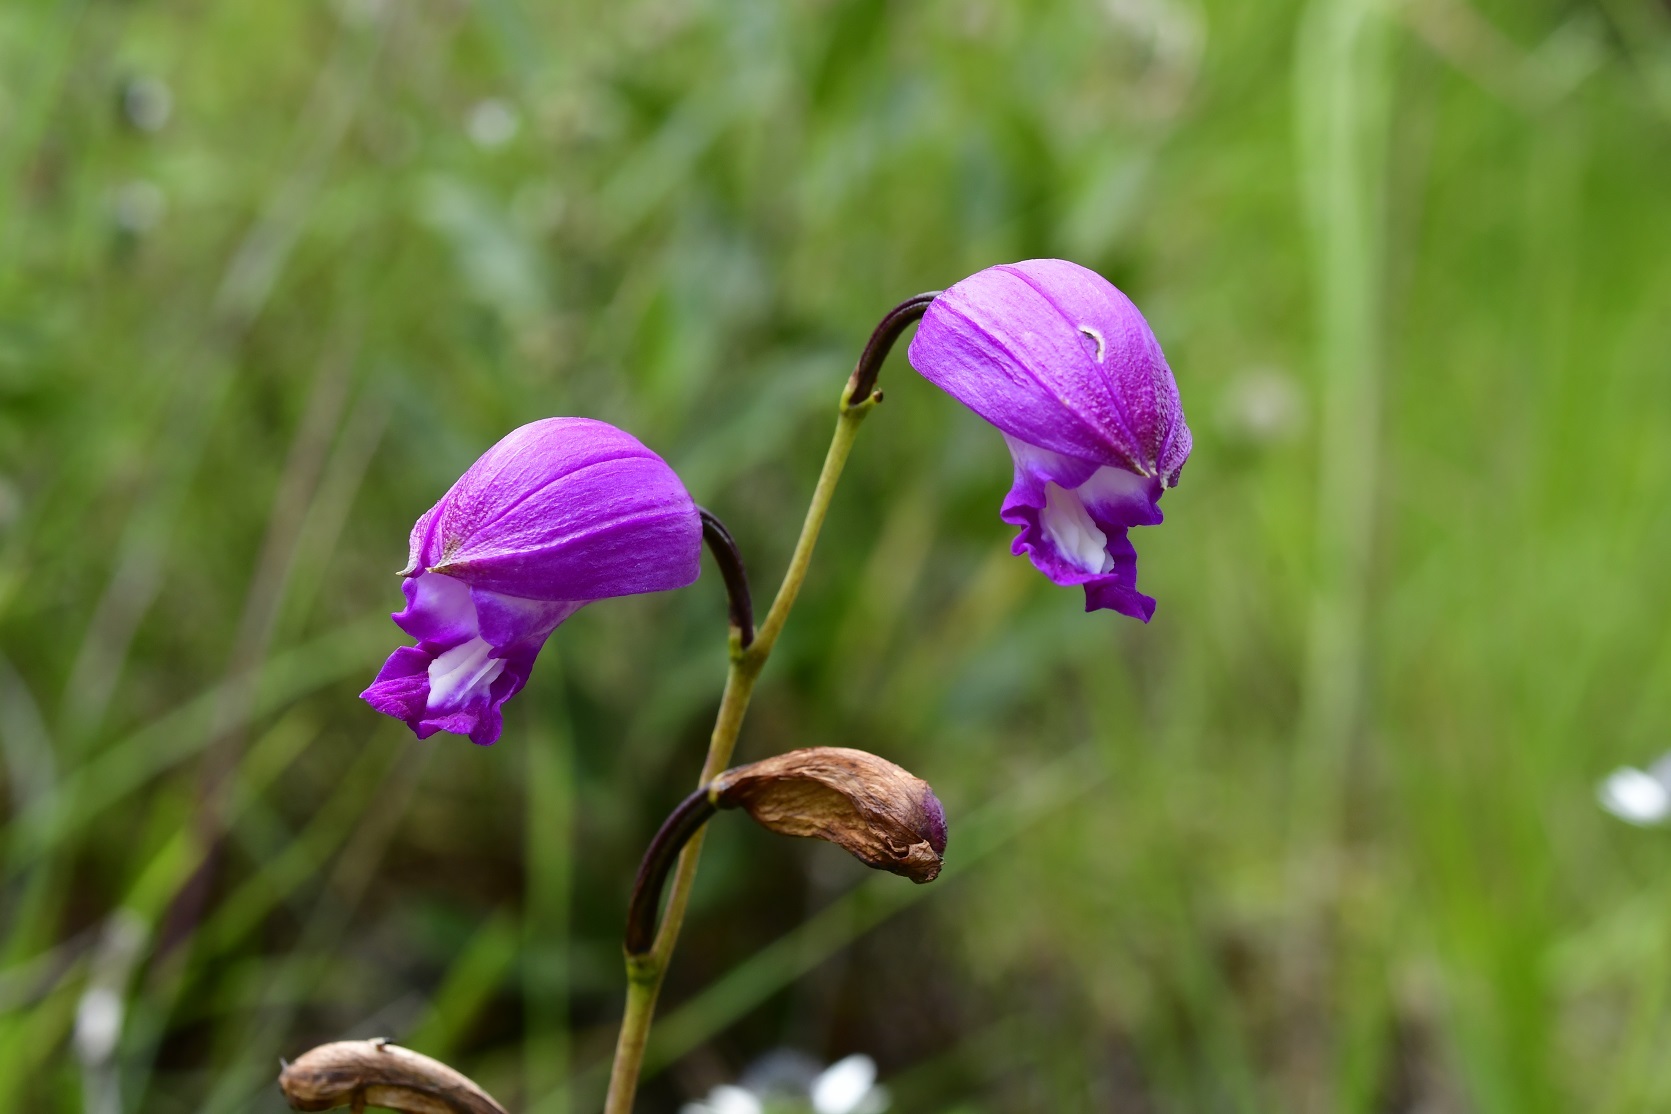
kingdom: Plantae
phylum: Tracheophyta
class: Liliopsida
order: Asparagales
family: Orchidaceae
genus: Bletia
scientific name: Bletia campanulata
